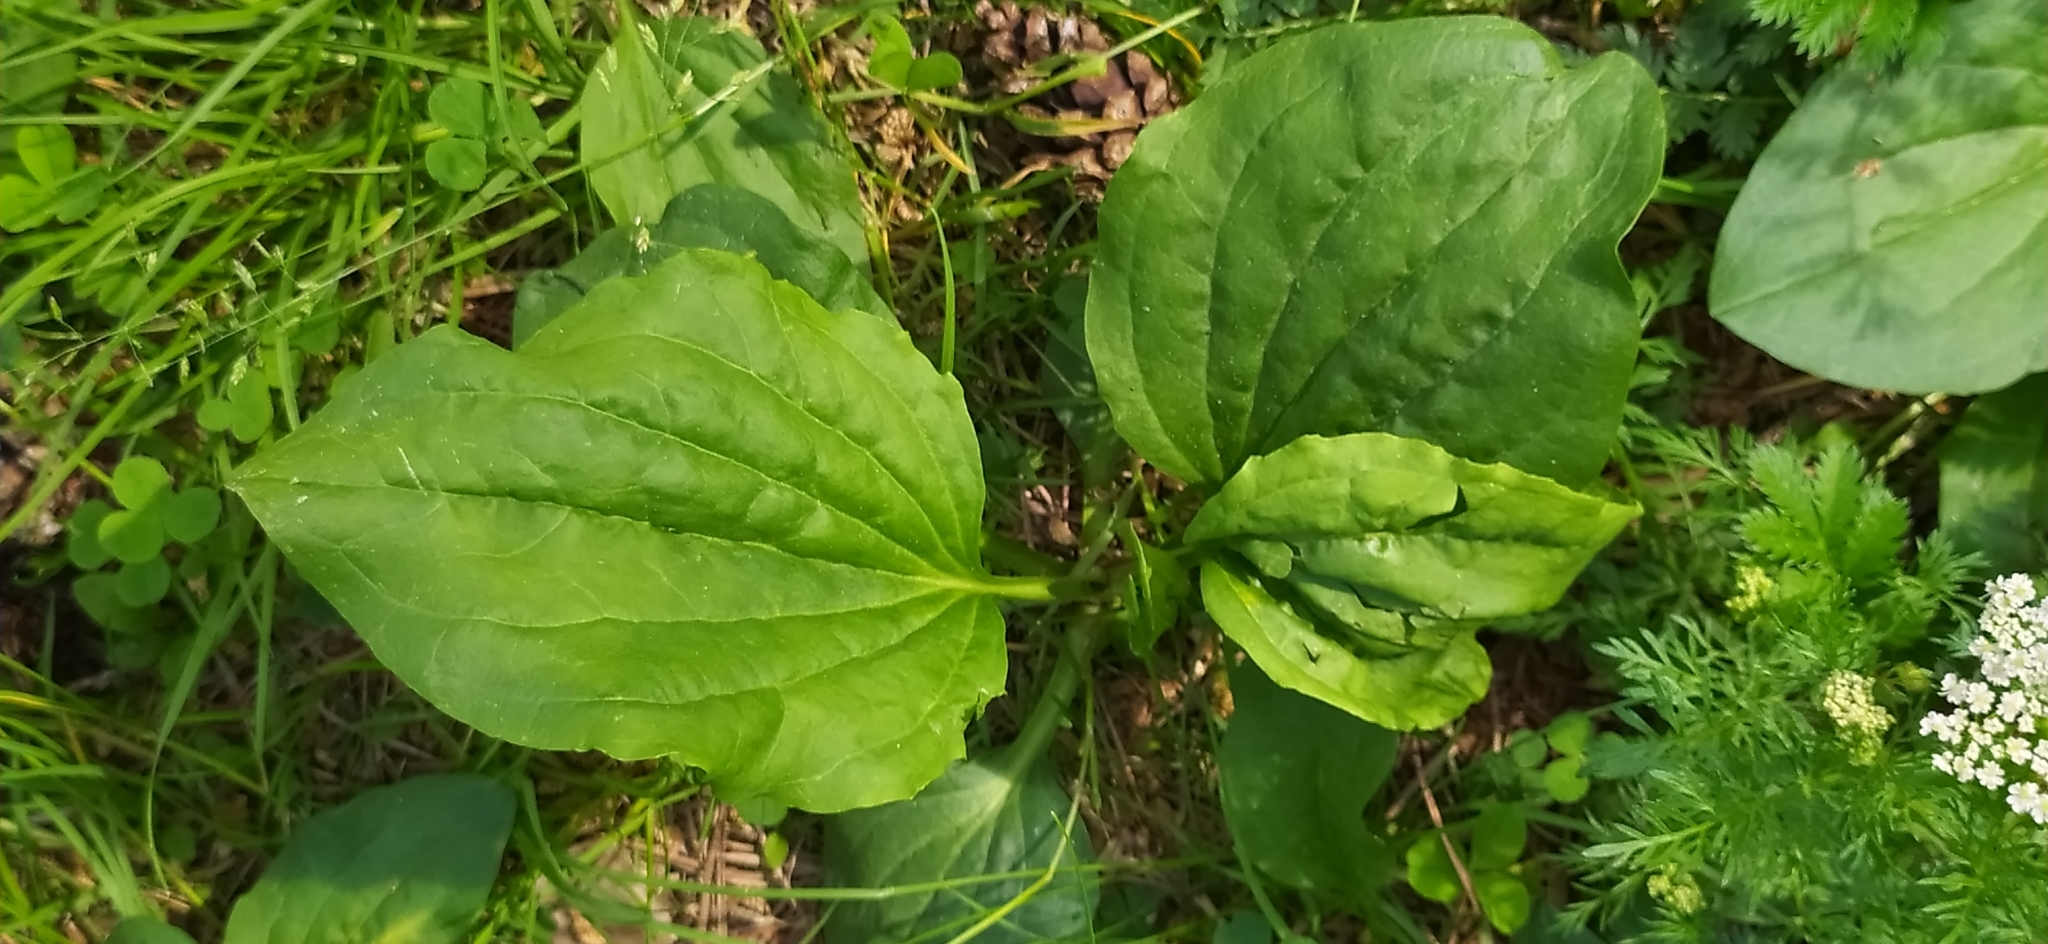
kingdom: Plantae
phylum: Tracheophyta
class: Magnoliopsida
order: Lamiales
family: Plantaginaceae
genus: Plantago
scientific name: Plantago major
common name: Common plantain
